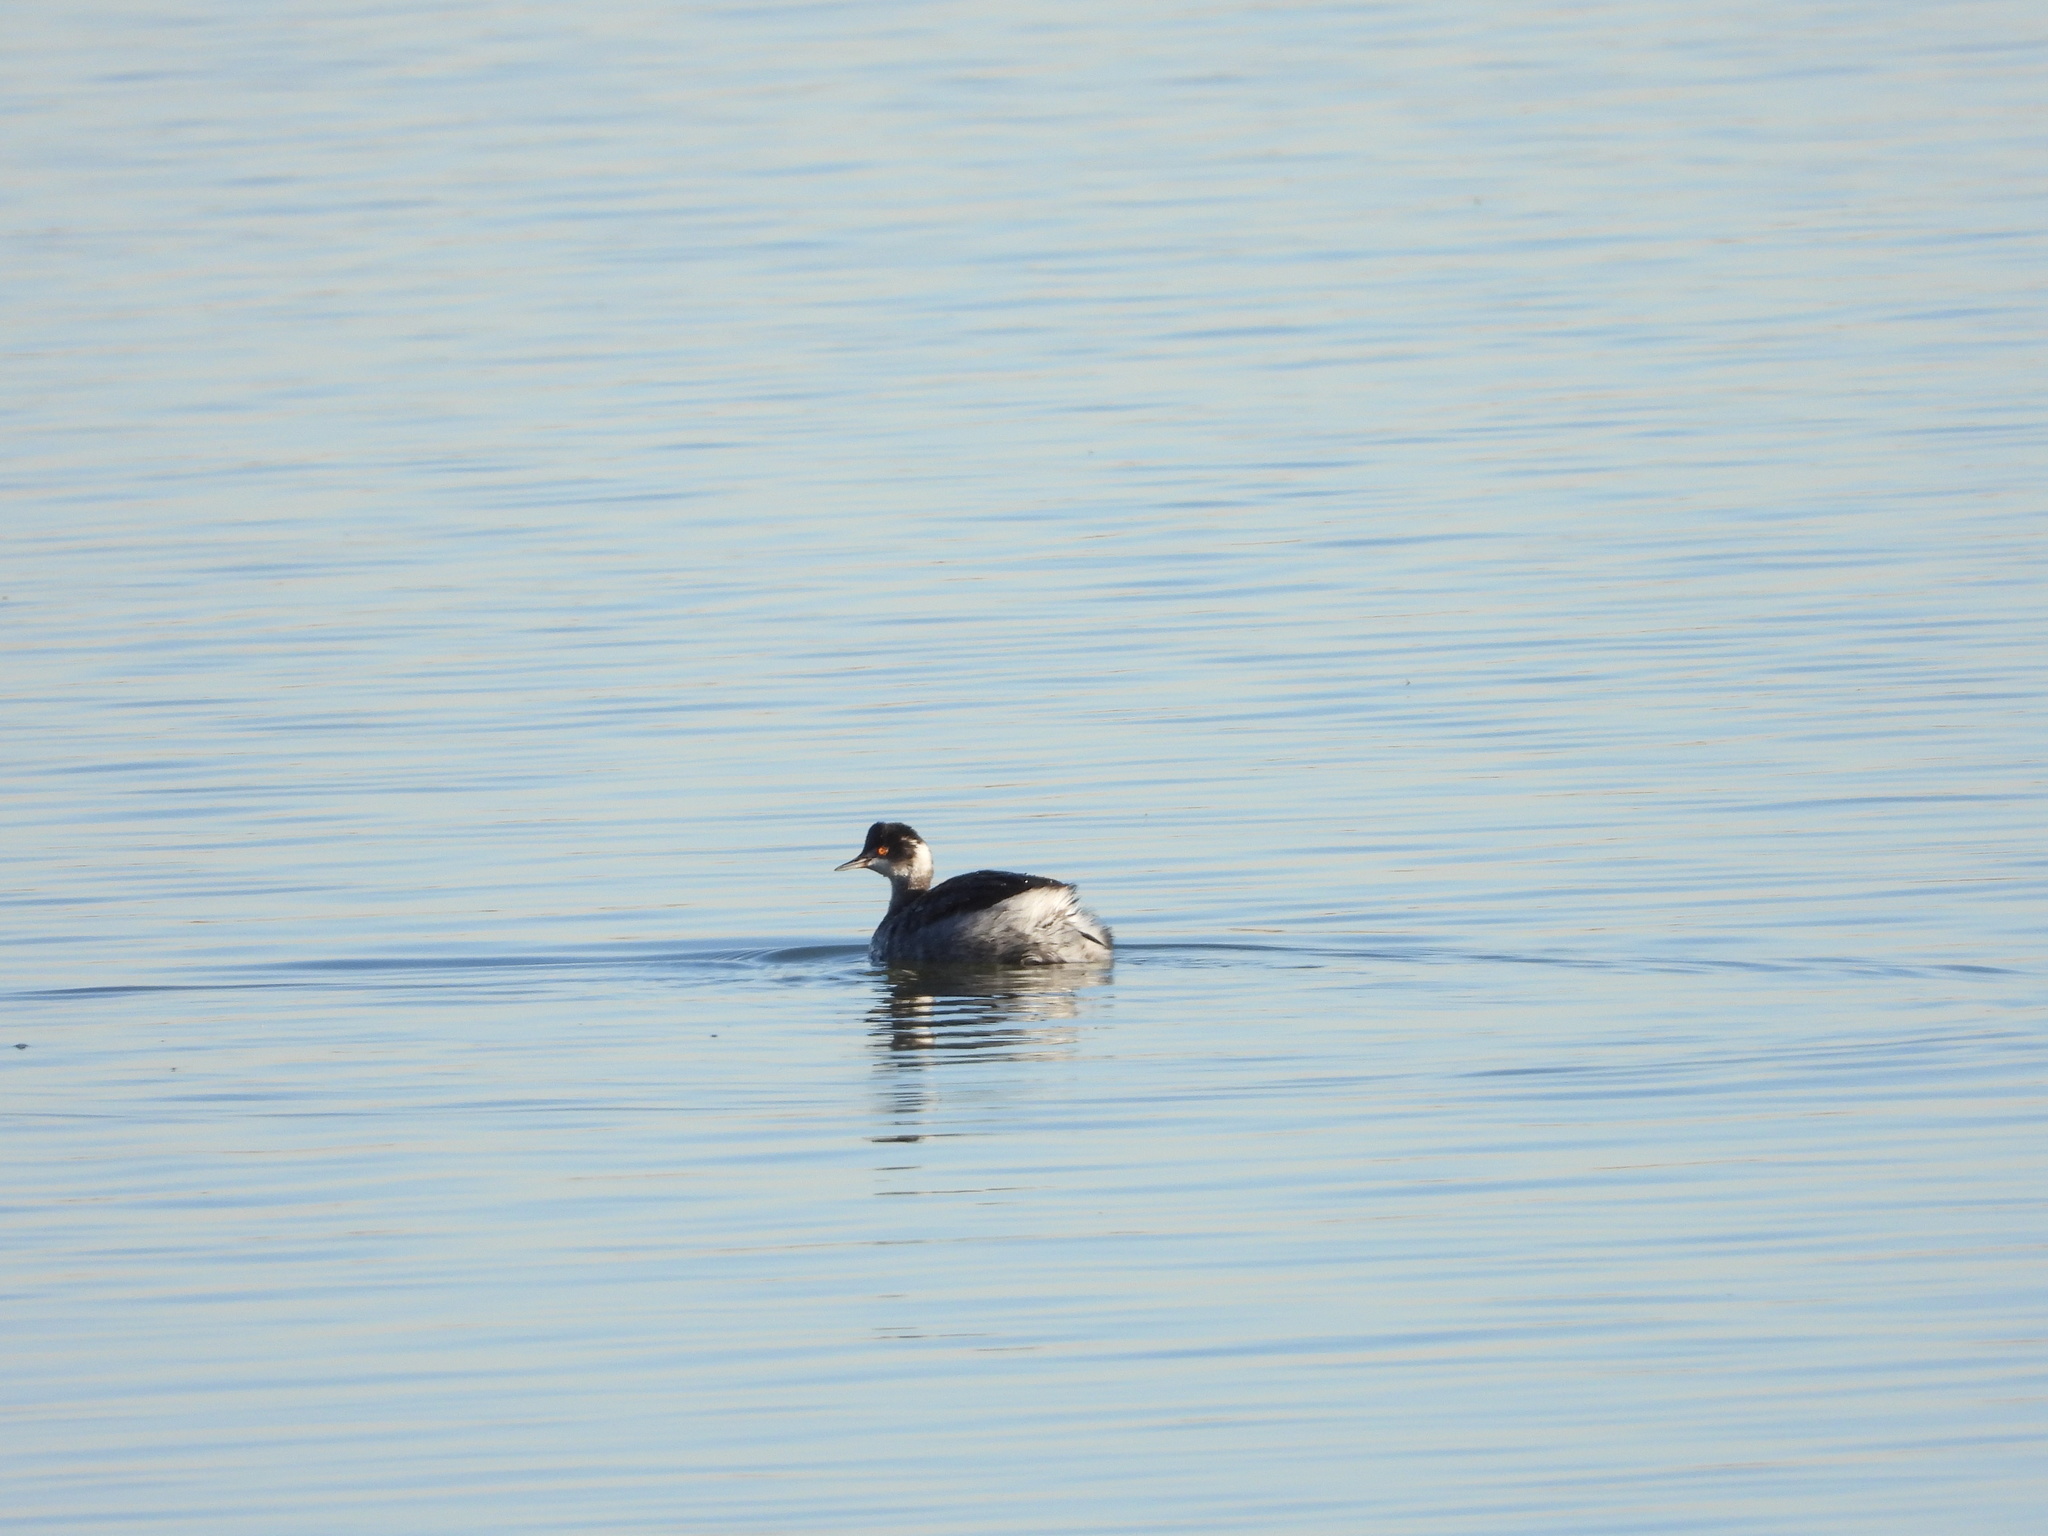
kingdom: Animalia
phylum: Chordata
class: Aves
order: Podicipediformes
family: Podicipedidae
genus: Podiceps
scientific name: Podiceps nigricollis
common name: Black-necked grebe
